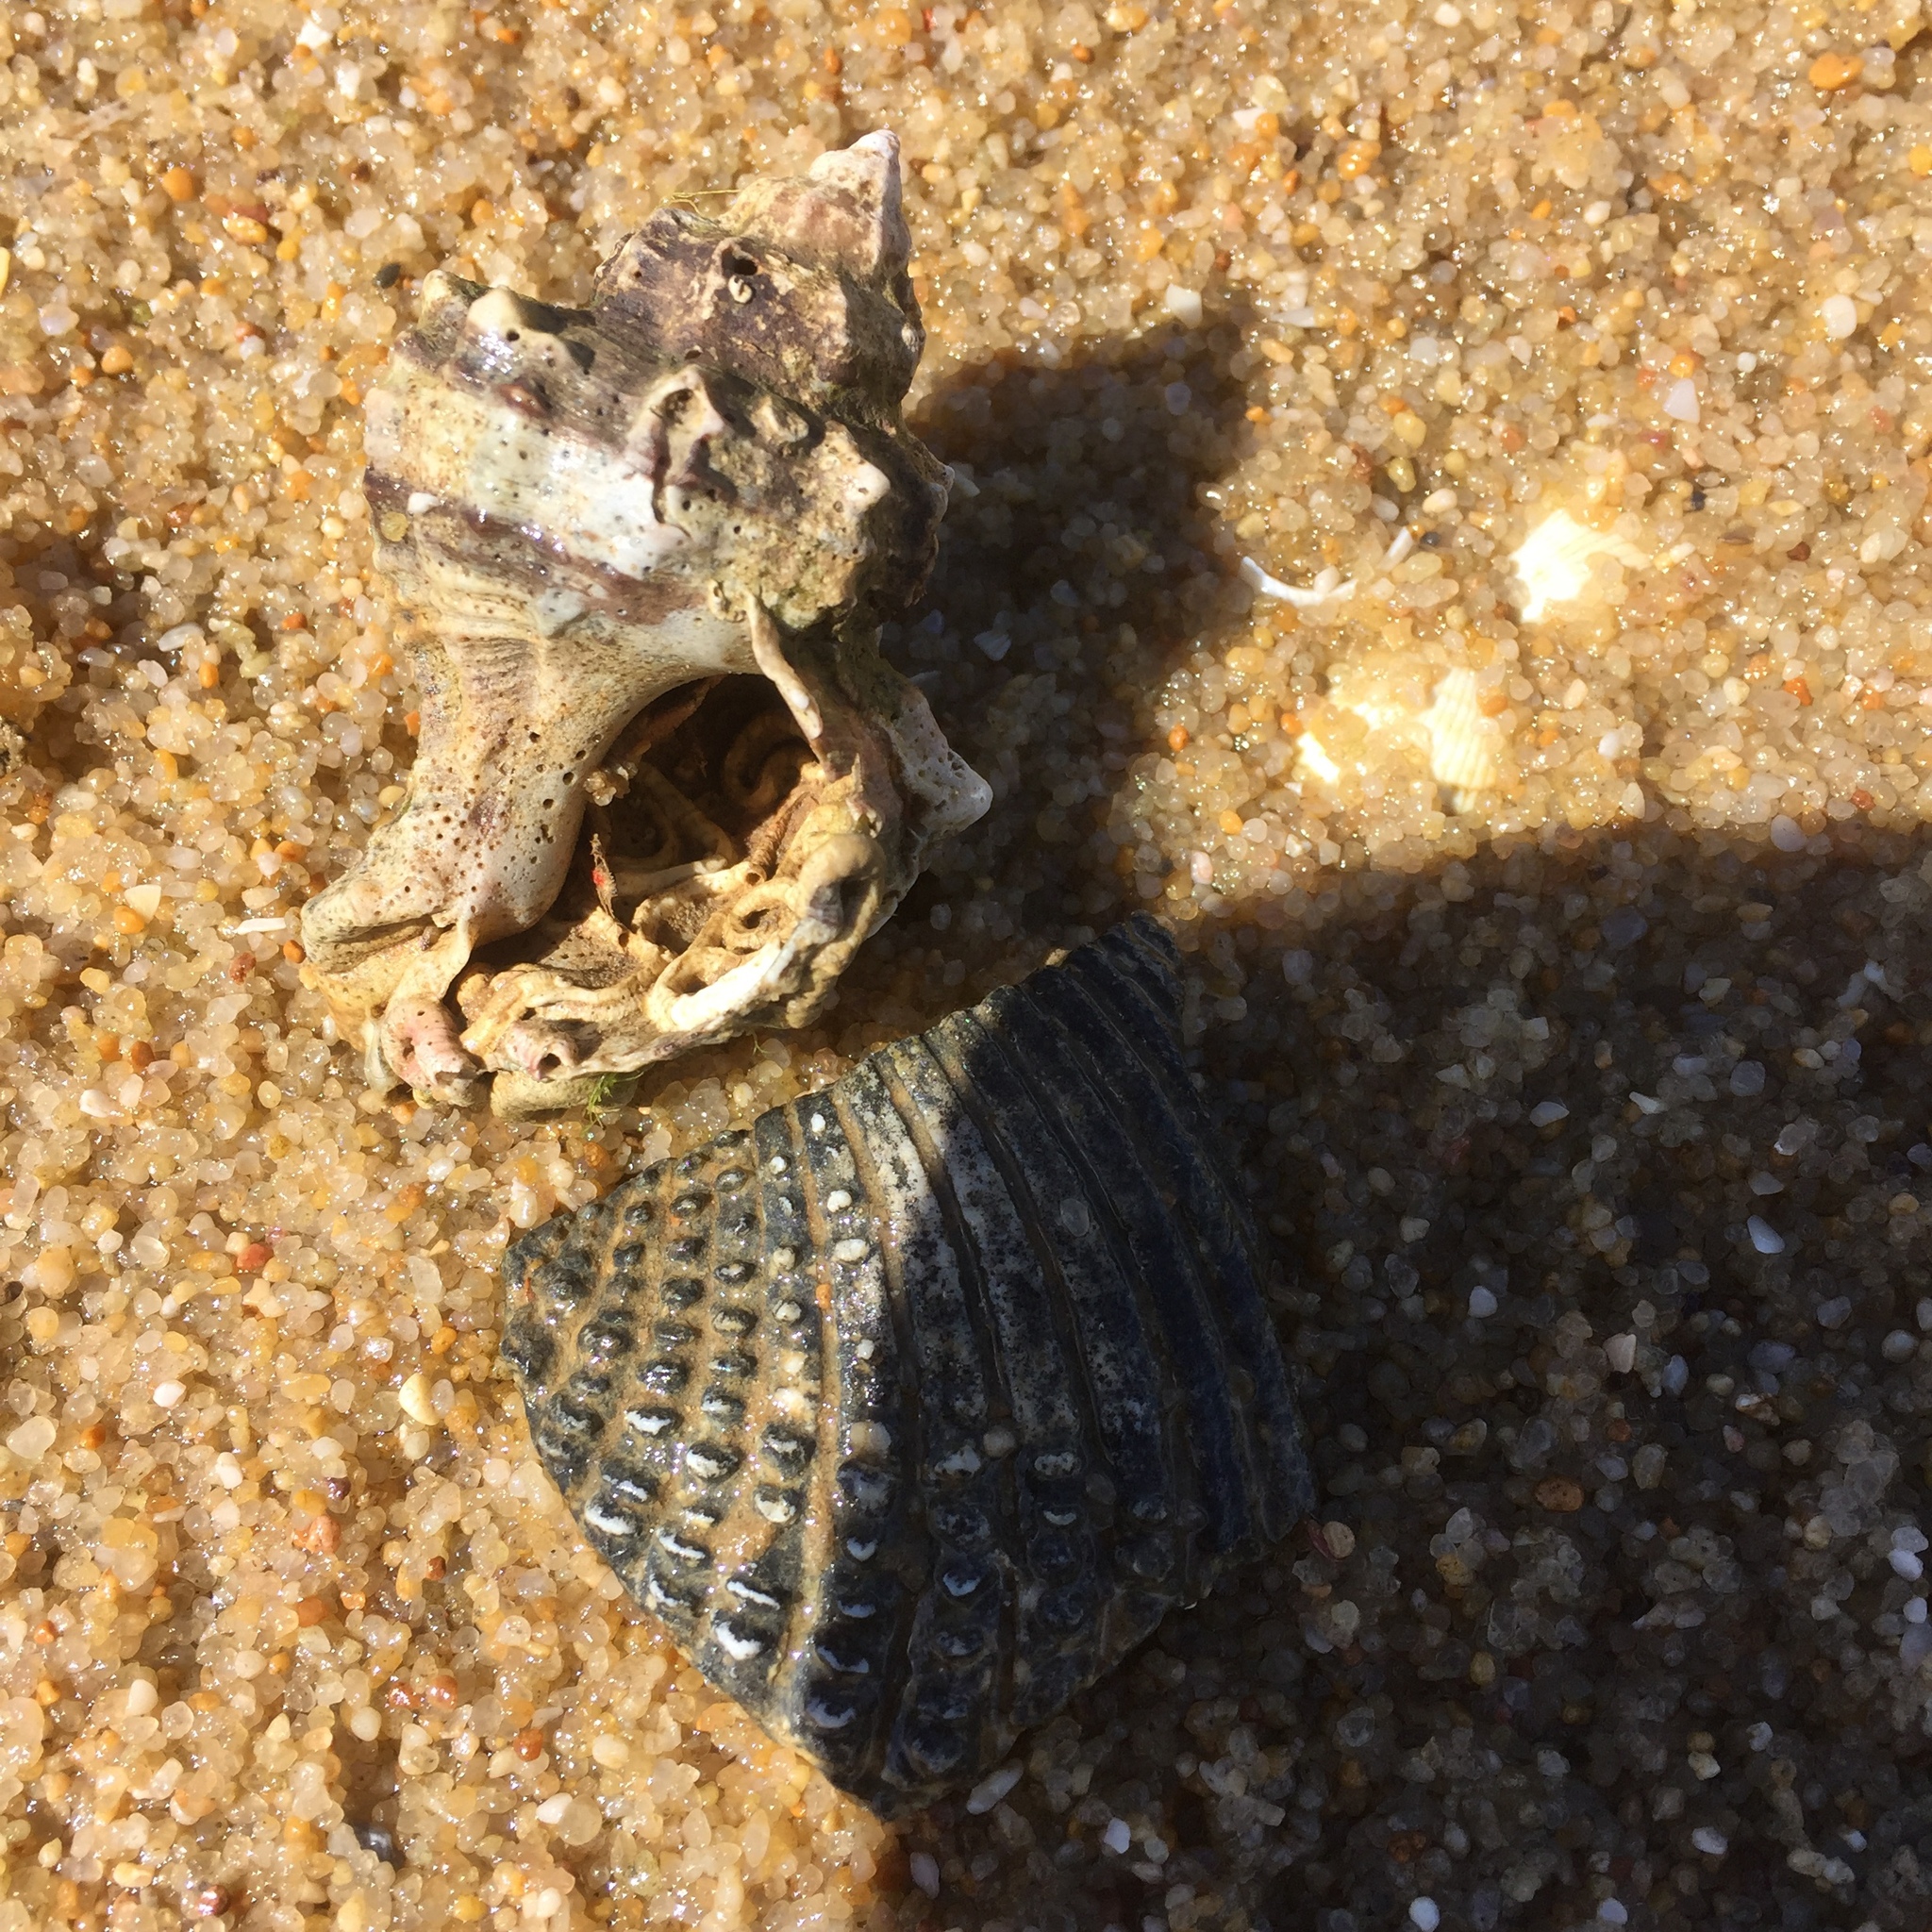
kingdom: Animalia
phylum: Mollusca
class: Gastropoda
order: Neogastropoda
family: Muricidae
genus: Hexaplex
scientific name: Hexaplex trunculus
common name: Banded dye-murex
